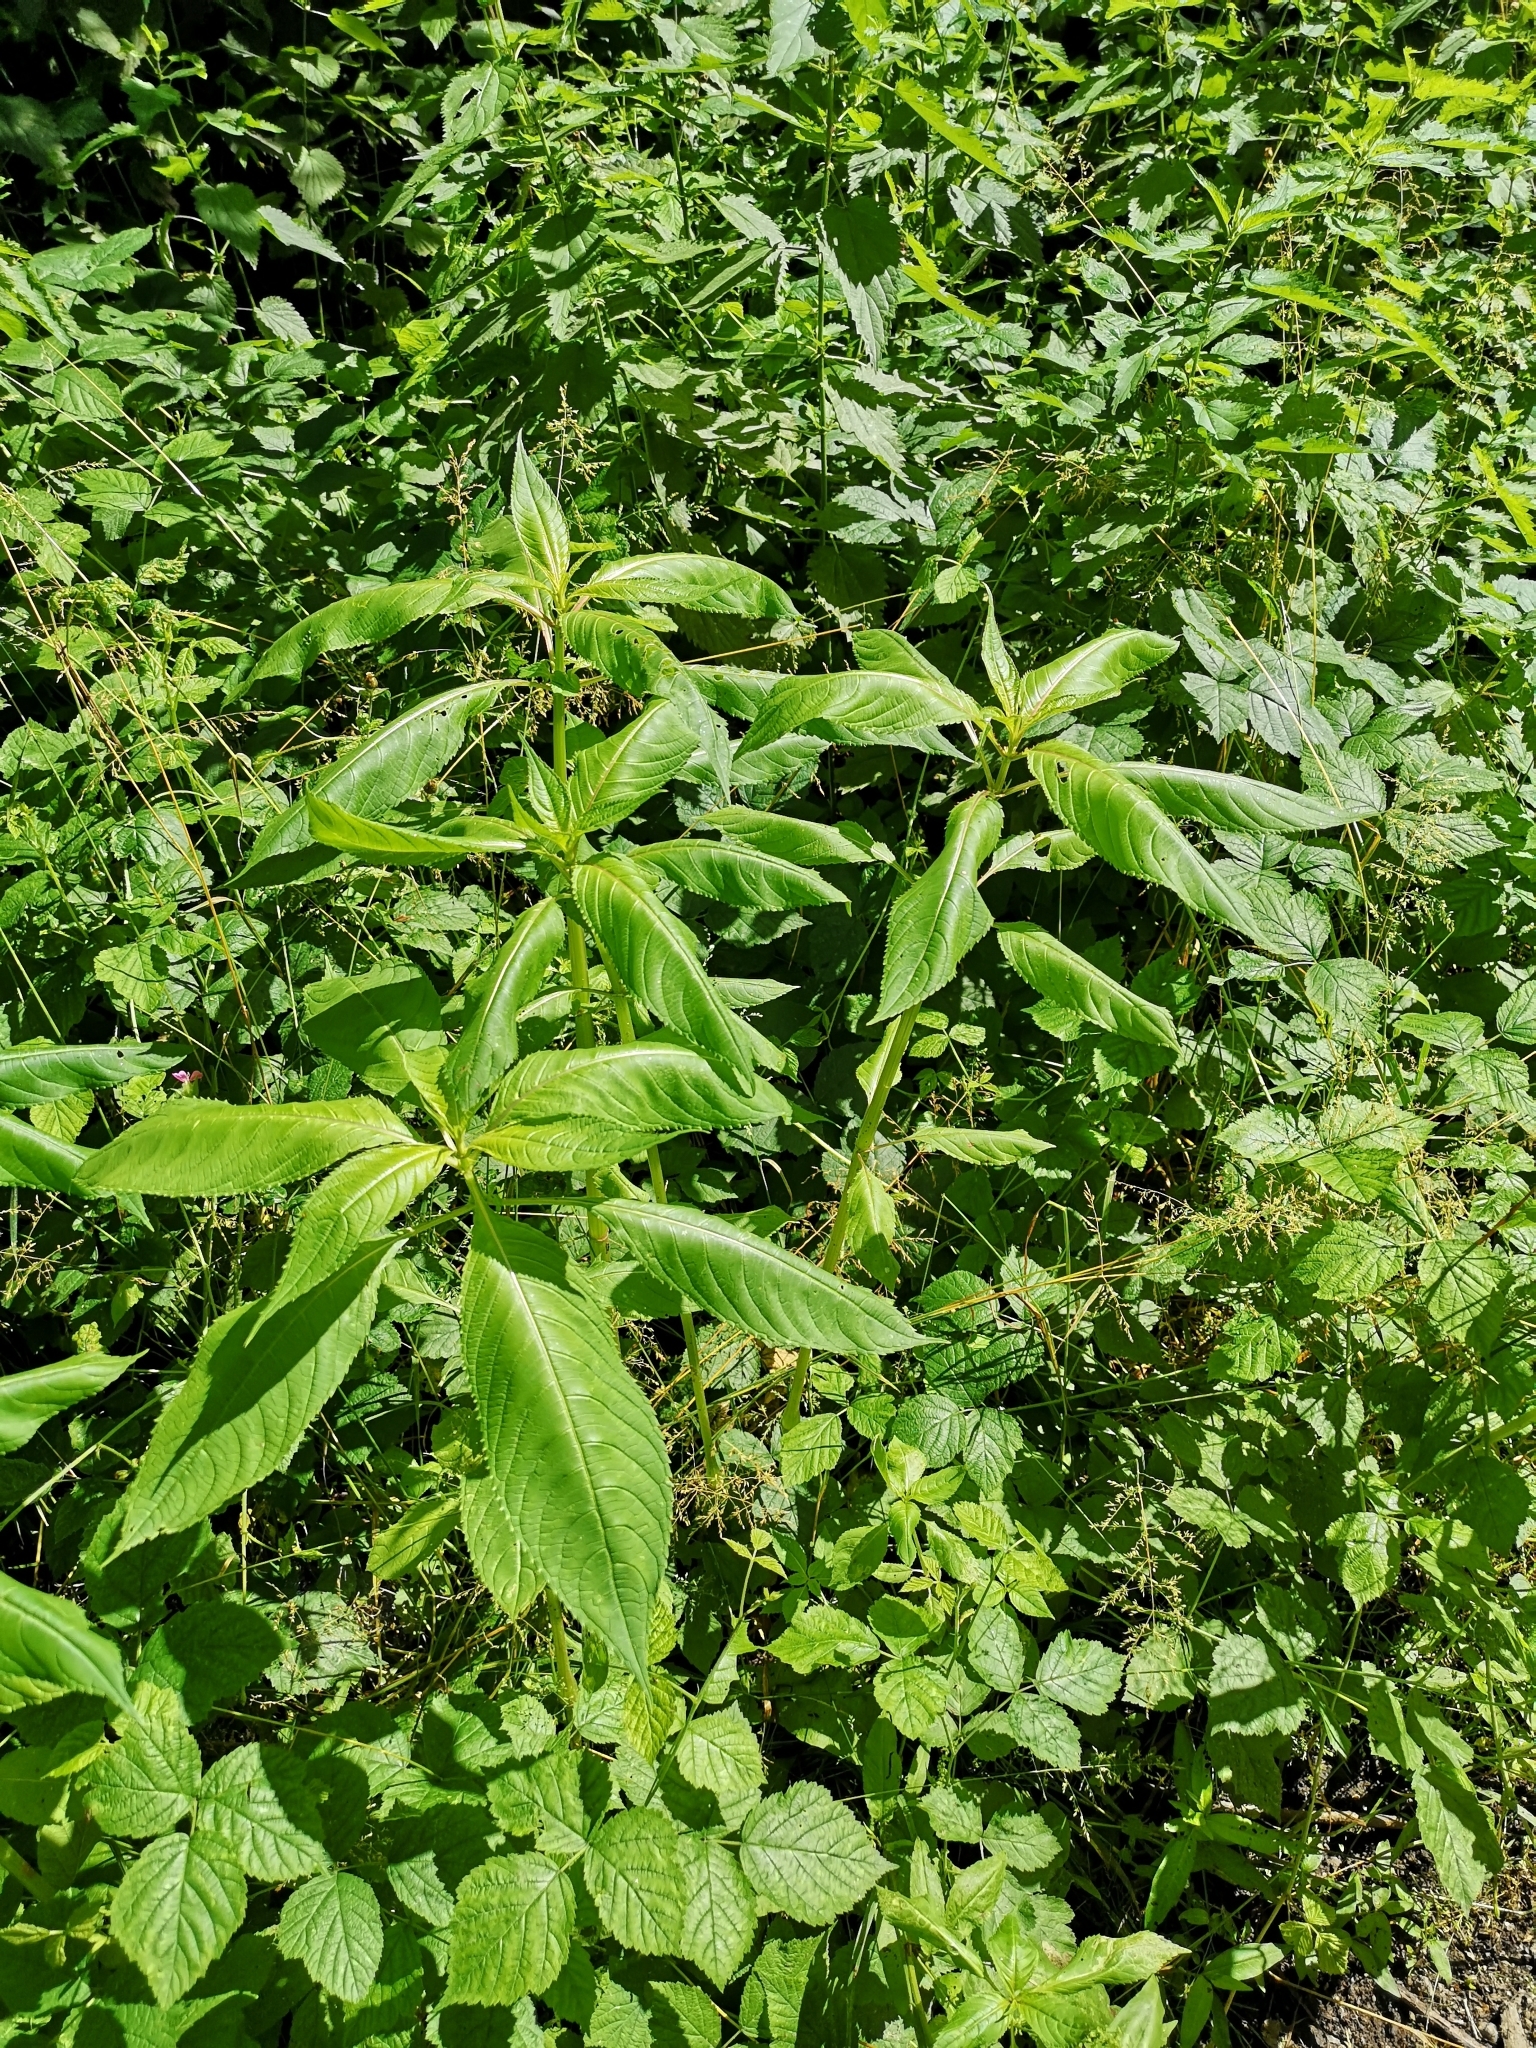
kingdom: Plantae
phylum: Tracheophyta
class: Magnoliopsida
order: Ericales
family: Balsaminaceae
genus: Impatiens
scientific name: Impatiens glandulifera
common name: Himalayan balsam
